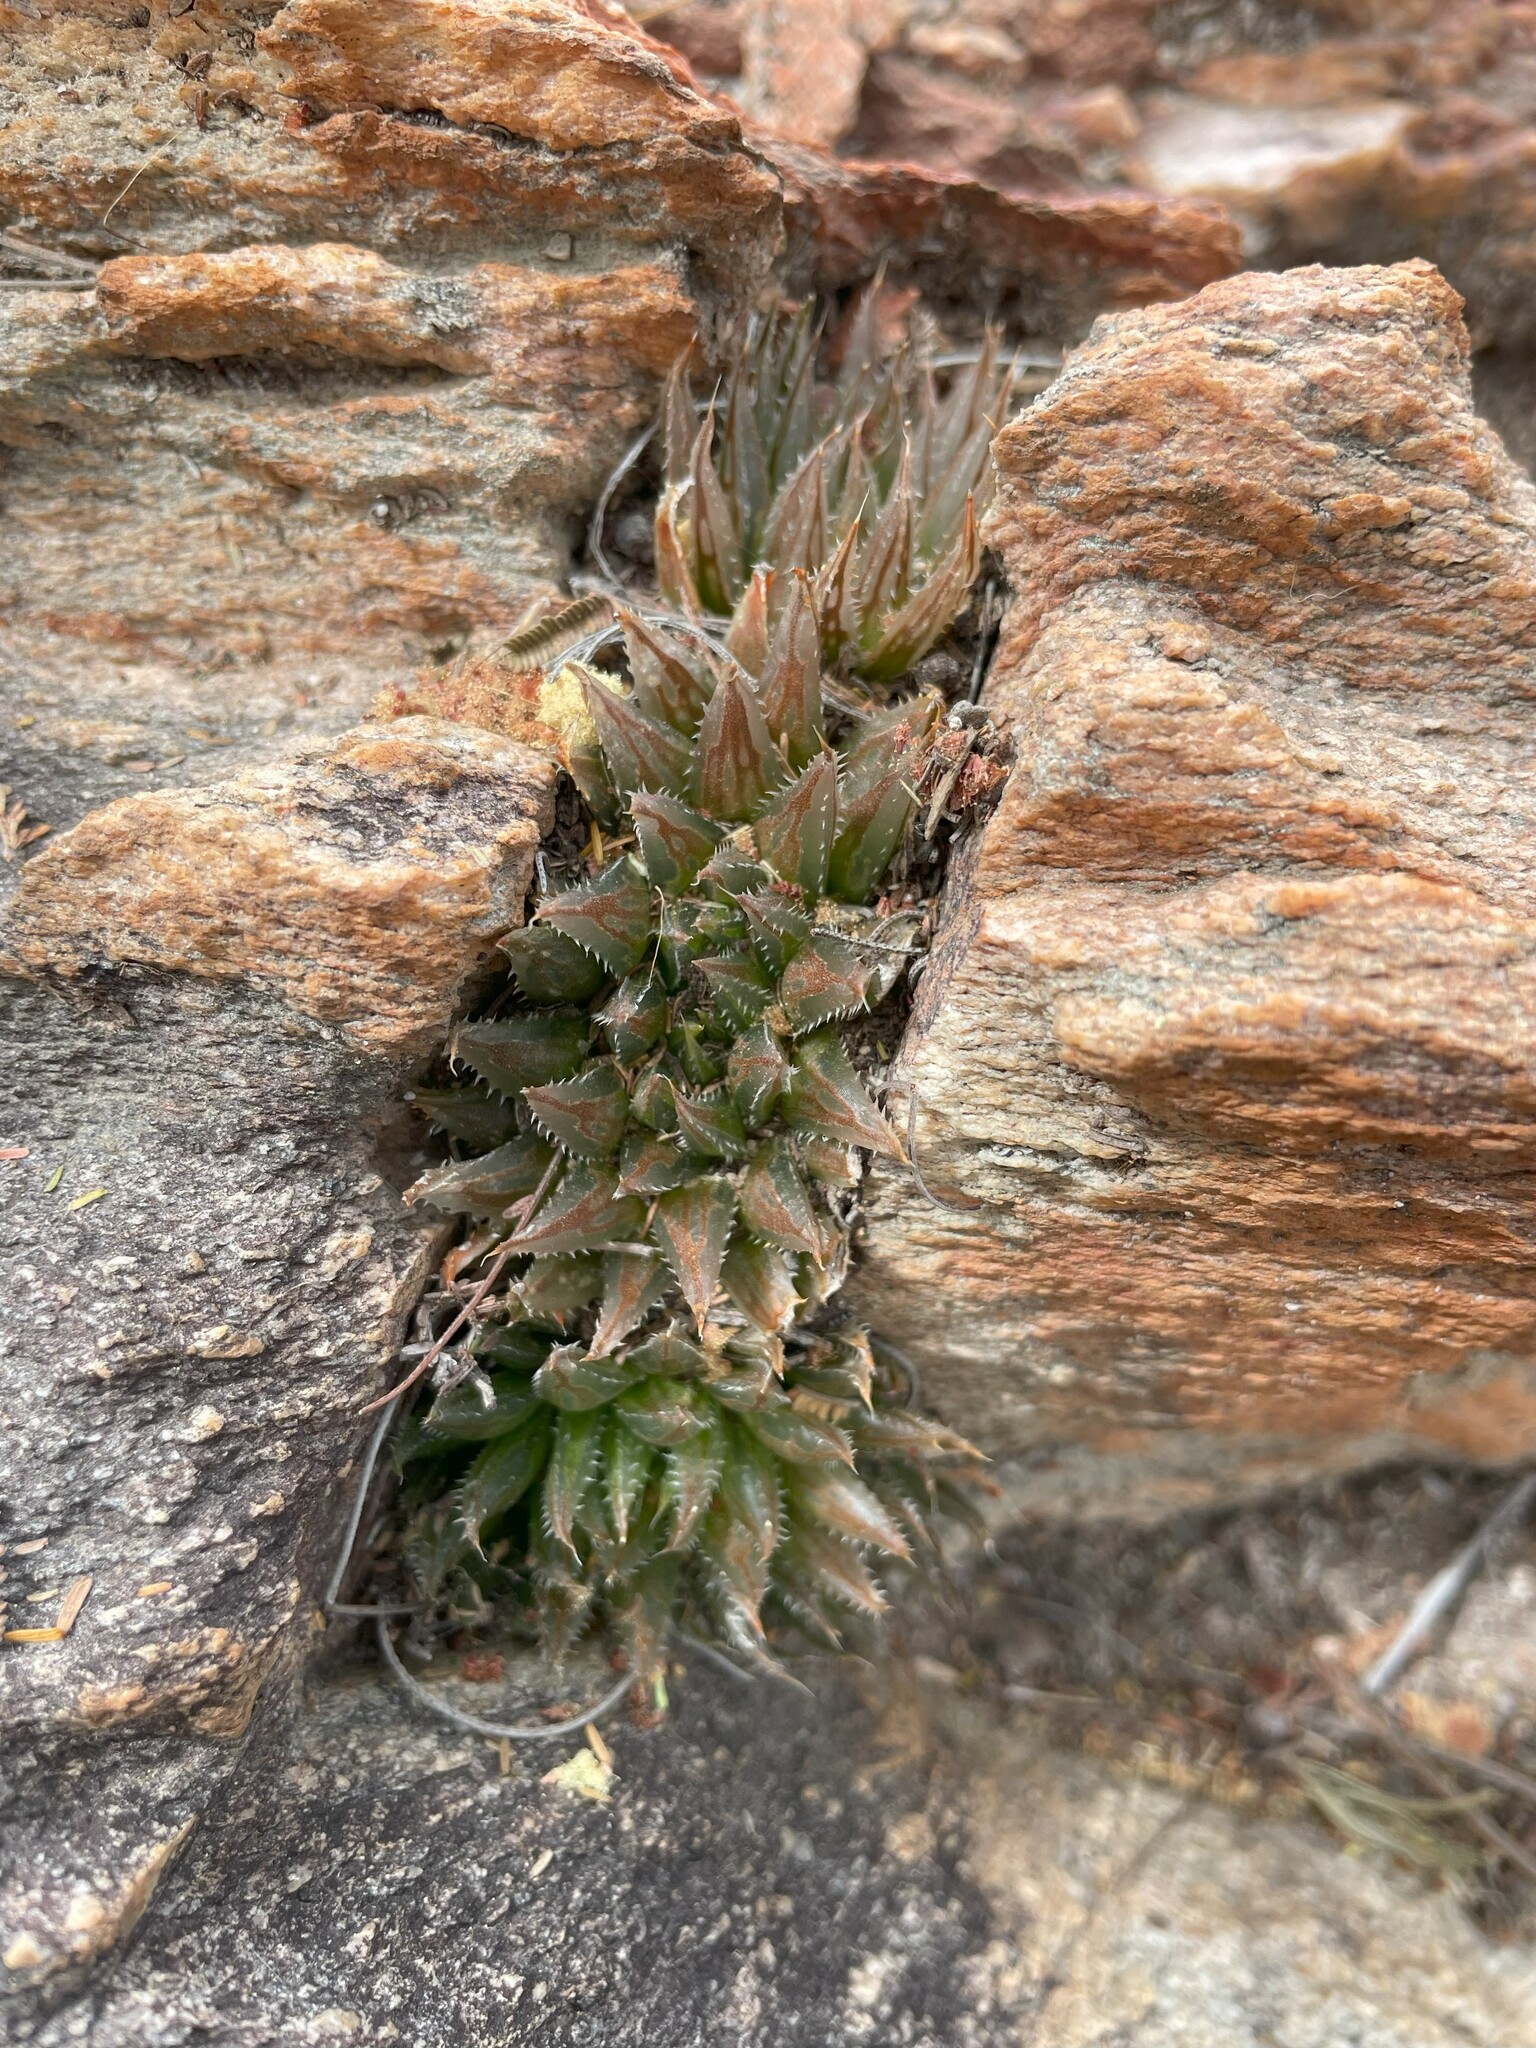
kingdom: Plantae
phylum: Tracheophyta
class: Liliopsida
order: Asparagales
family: Asphodelaceae
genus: Haworthia
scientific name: Haworthia outeniquensis
